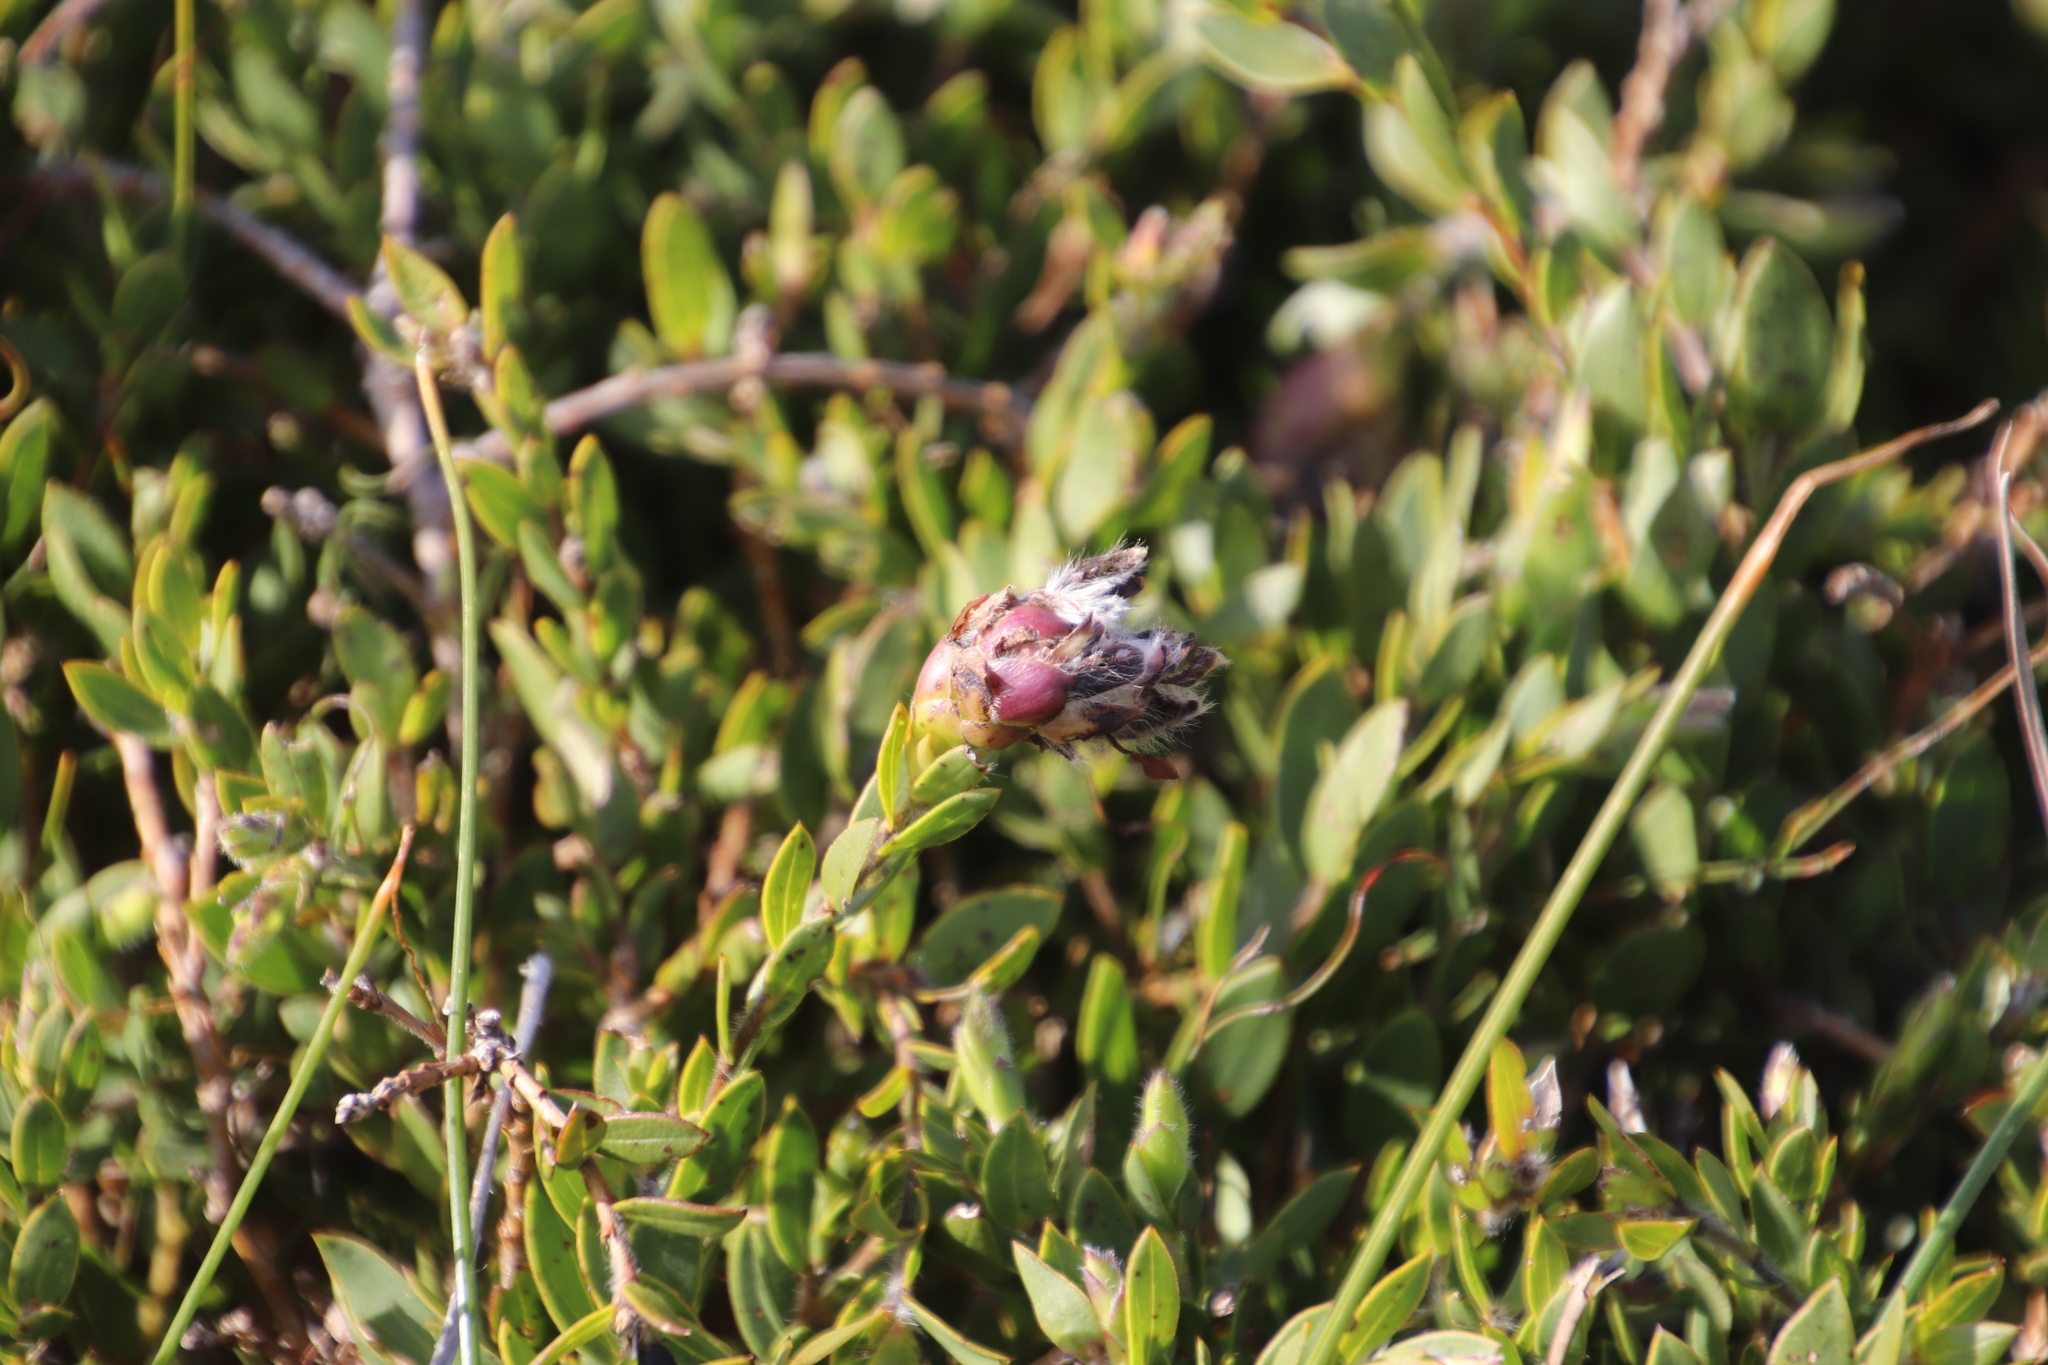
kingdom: Plantae
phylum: Tracheophyta
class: Magnoliopsida
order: Fabales
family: Fabaceae
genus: Liparia
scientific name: Liparia parva
